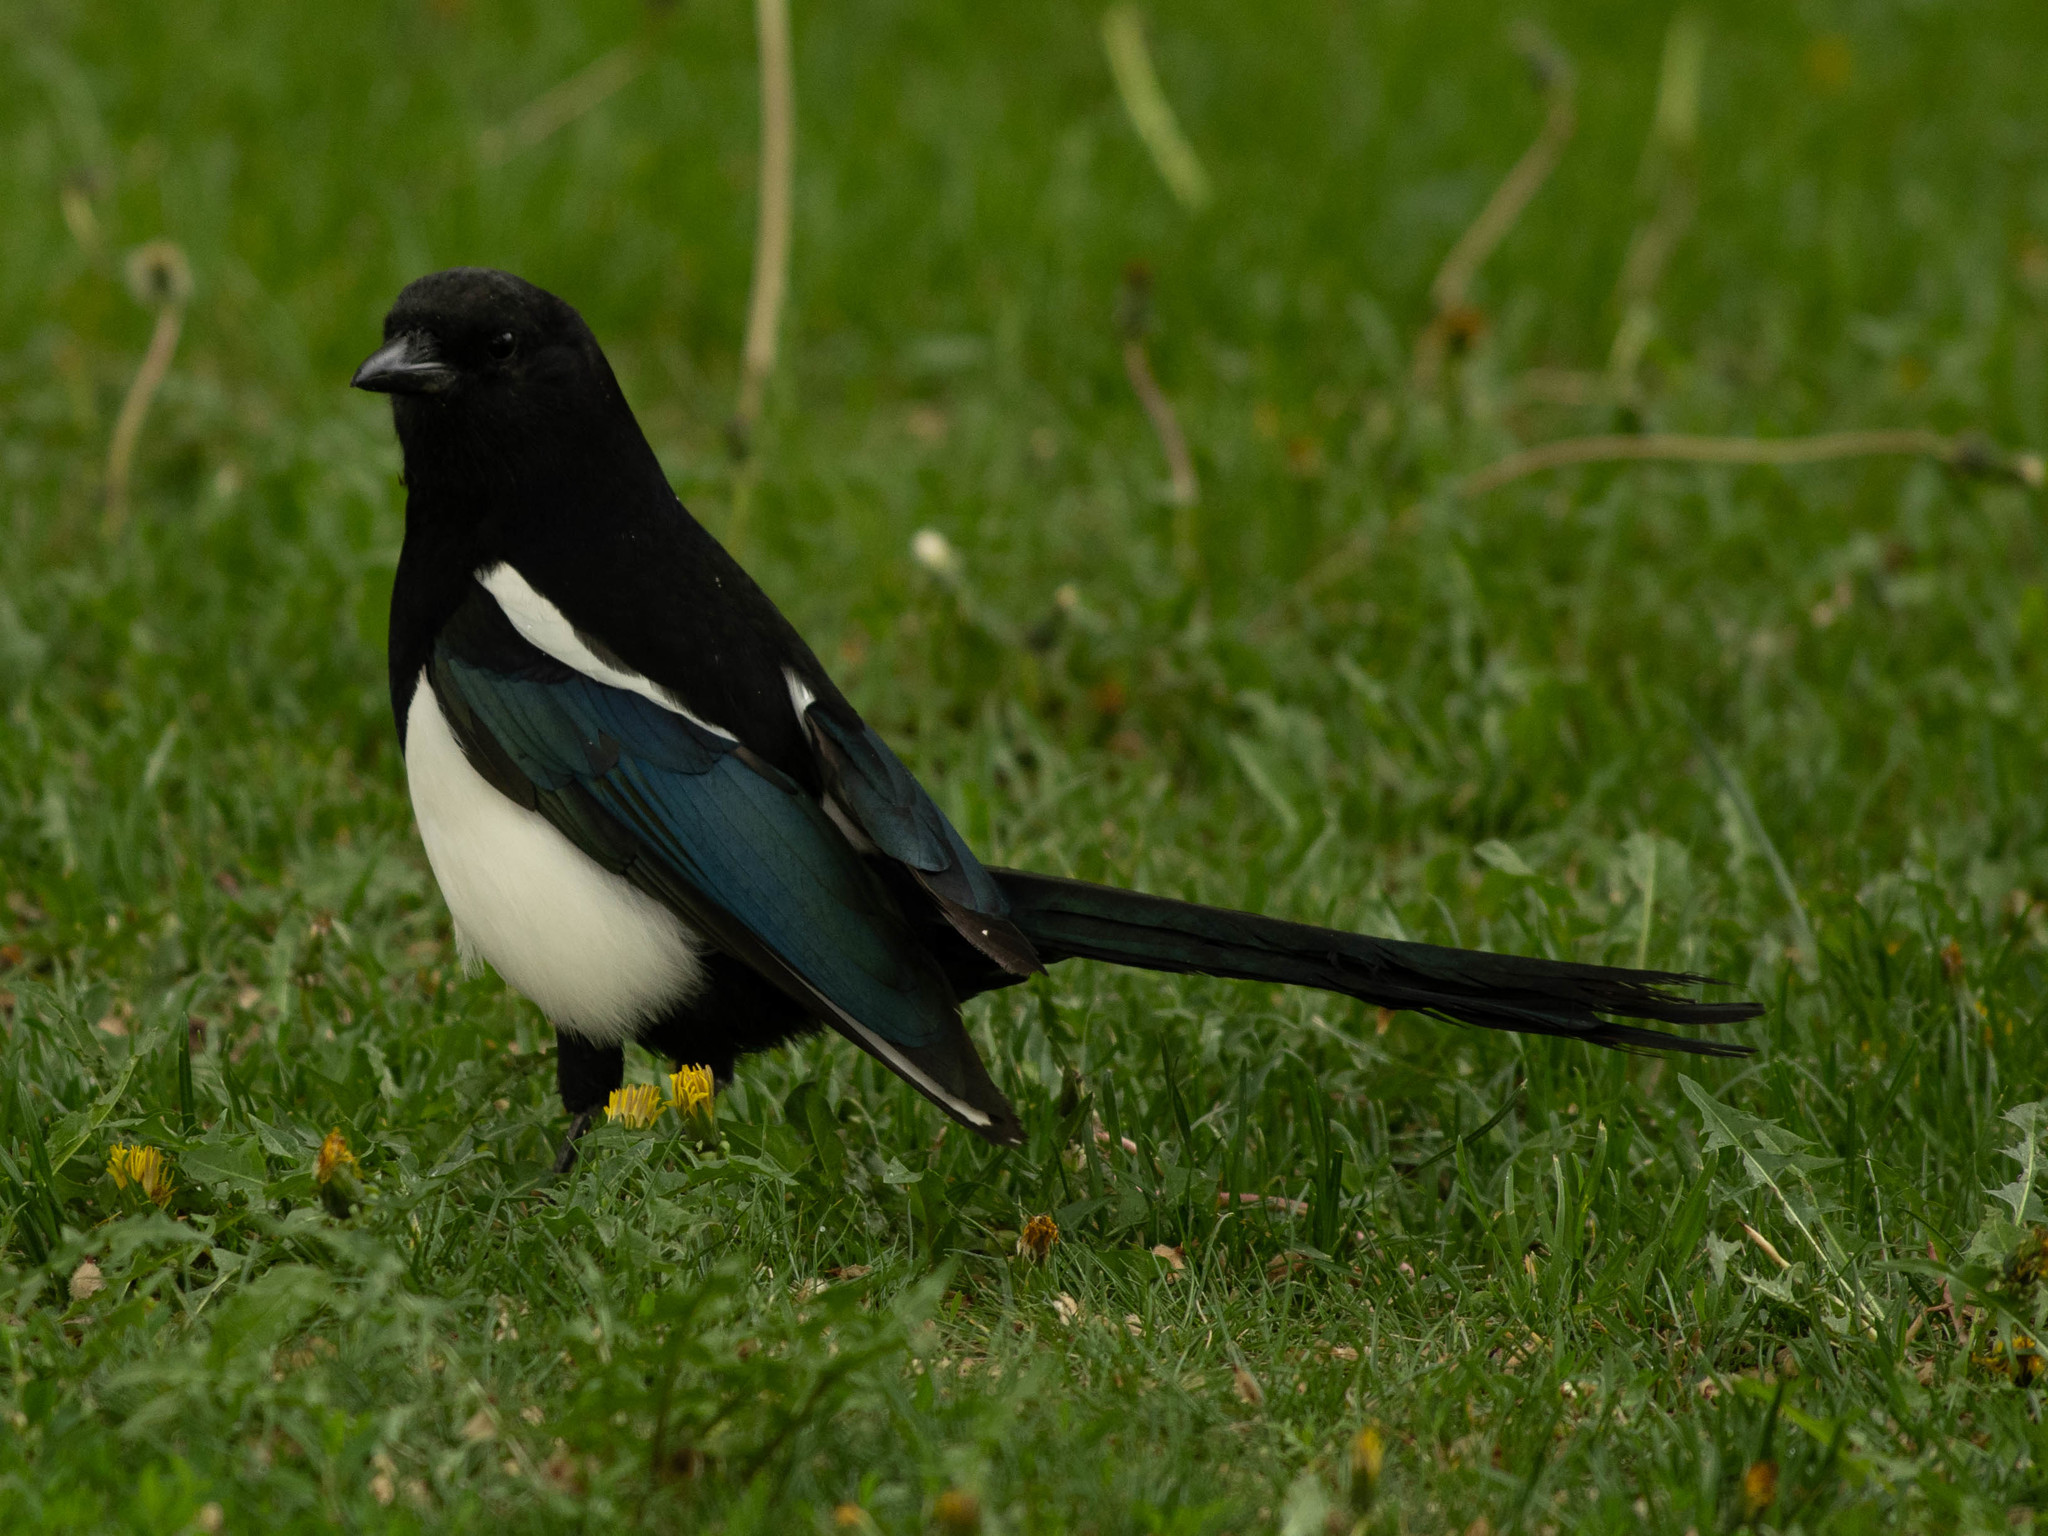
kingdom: Animalia
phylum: Chordata
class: Aves
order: Passeriformes
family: Corvidae
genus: Pica
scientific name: Pica hudsonia
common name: Black-billed magpie
